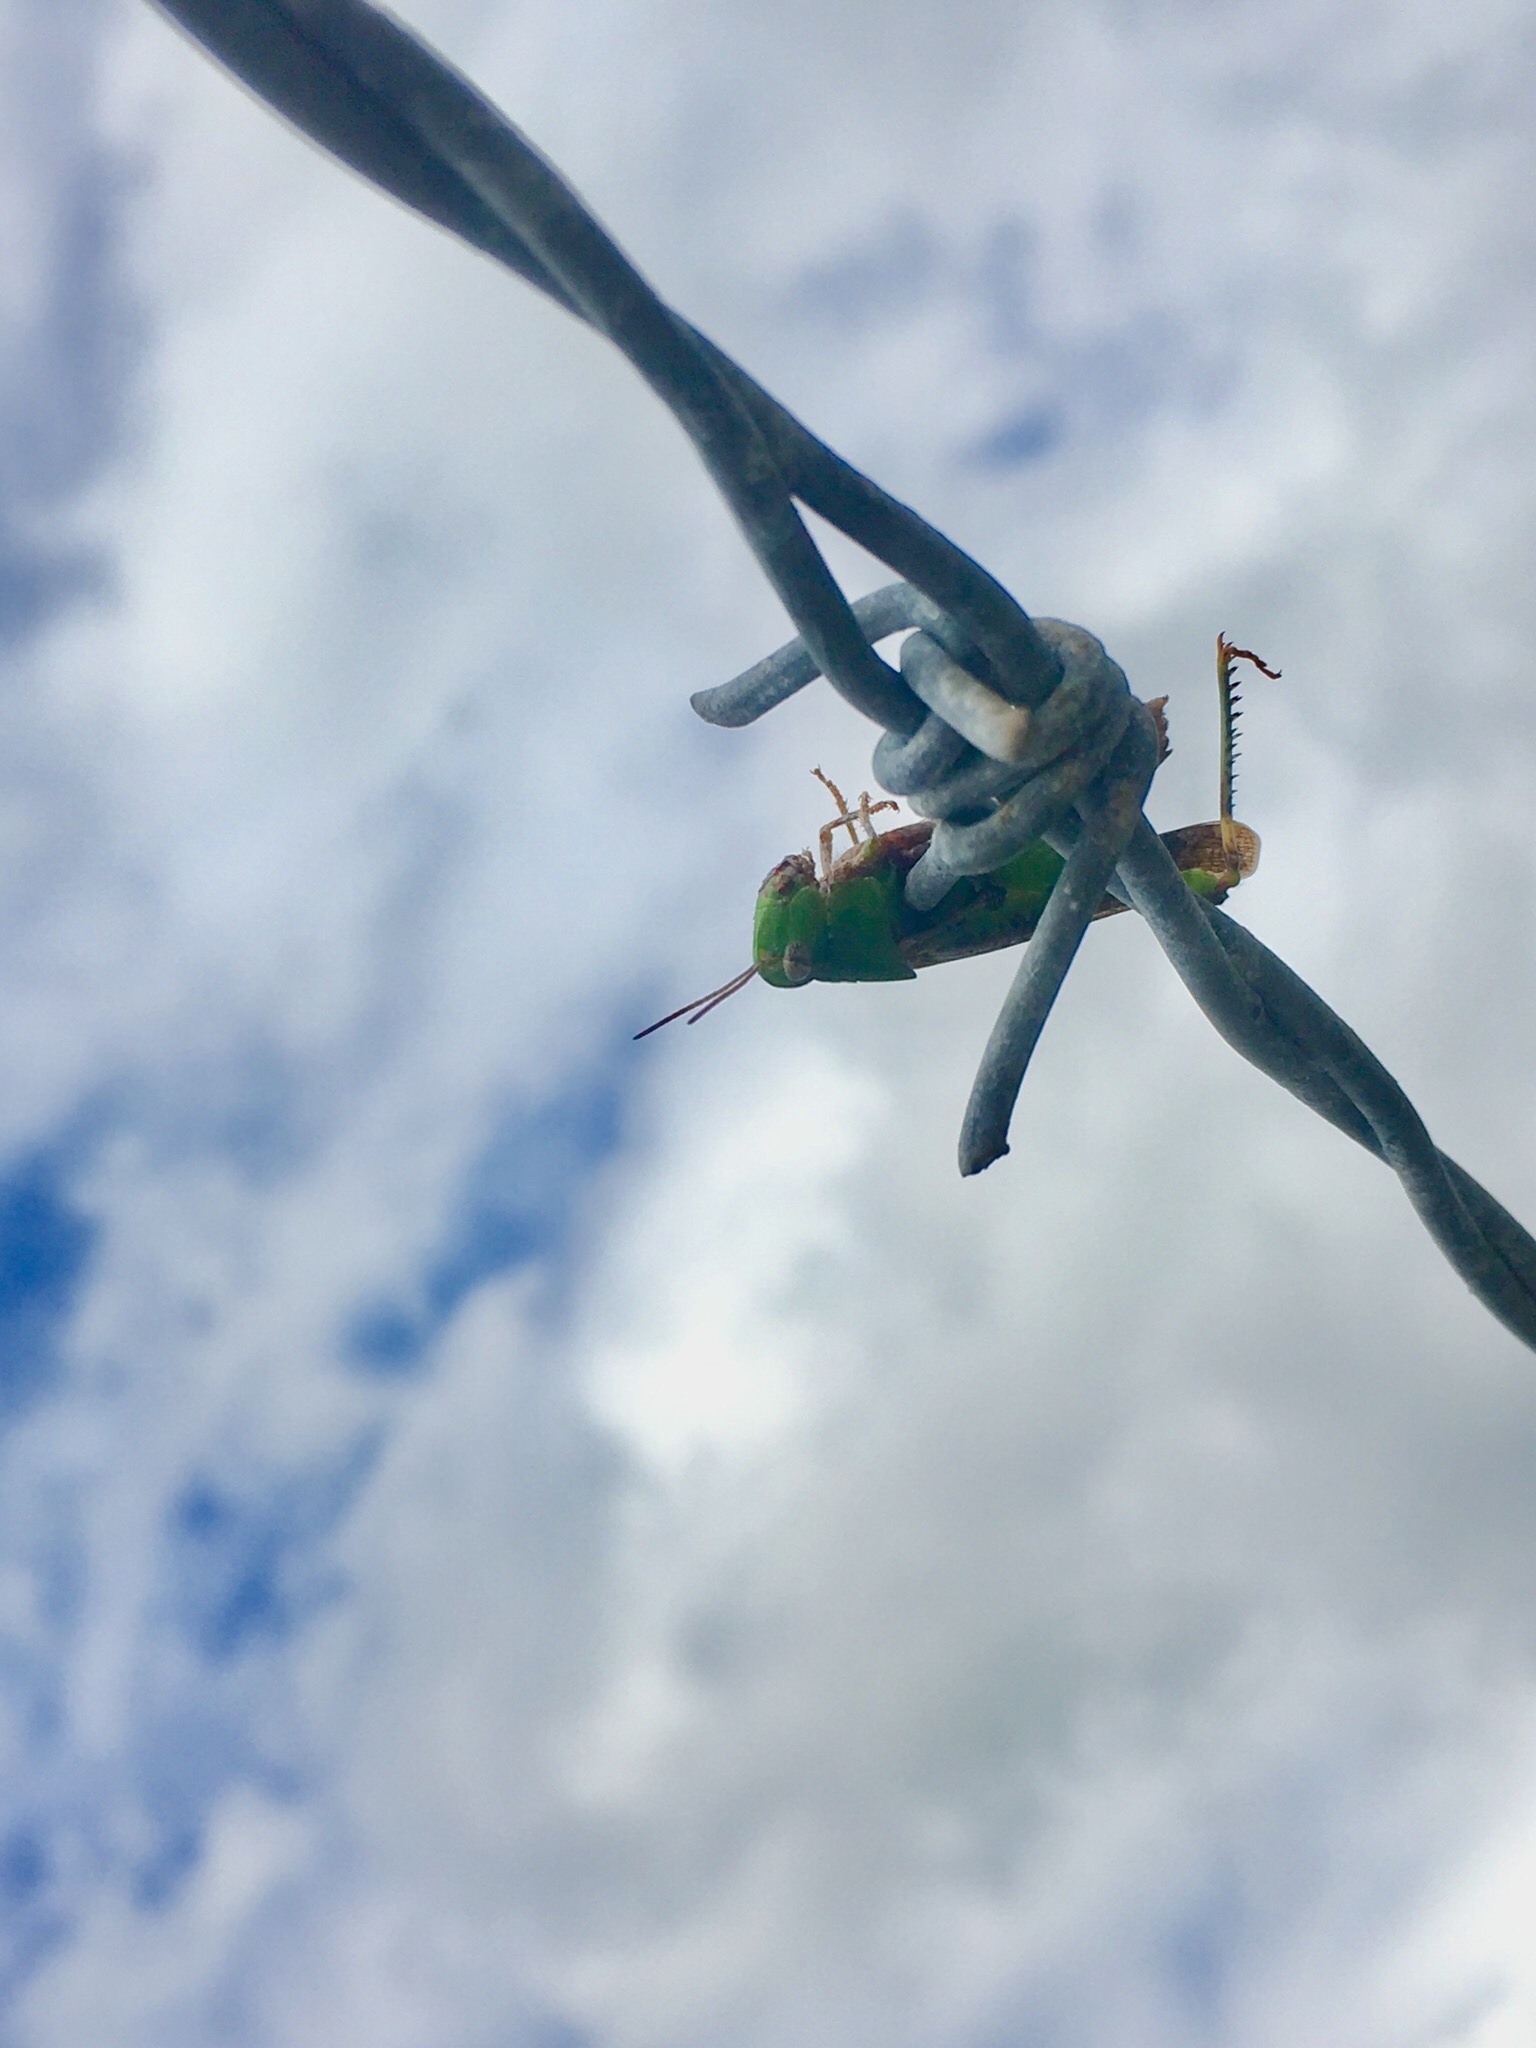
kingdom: Animalia
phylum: Arthropoda
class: Insecta
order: Orthoptera
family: Acrididae
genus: Chortophaga
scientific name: Chortophaga australior
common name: Southern green-striped grasshopper
